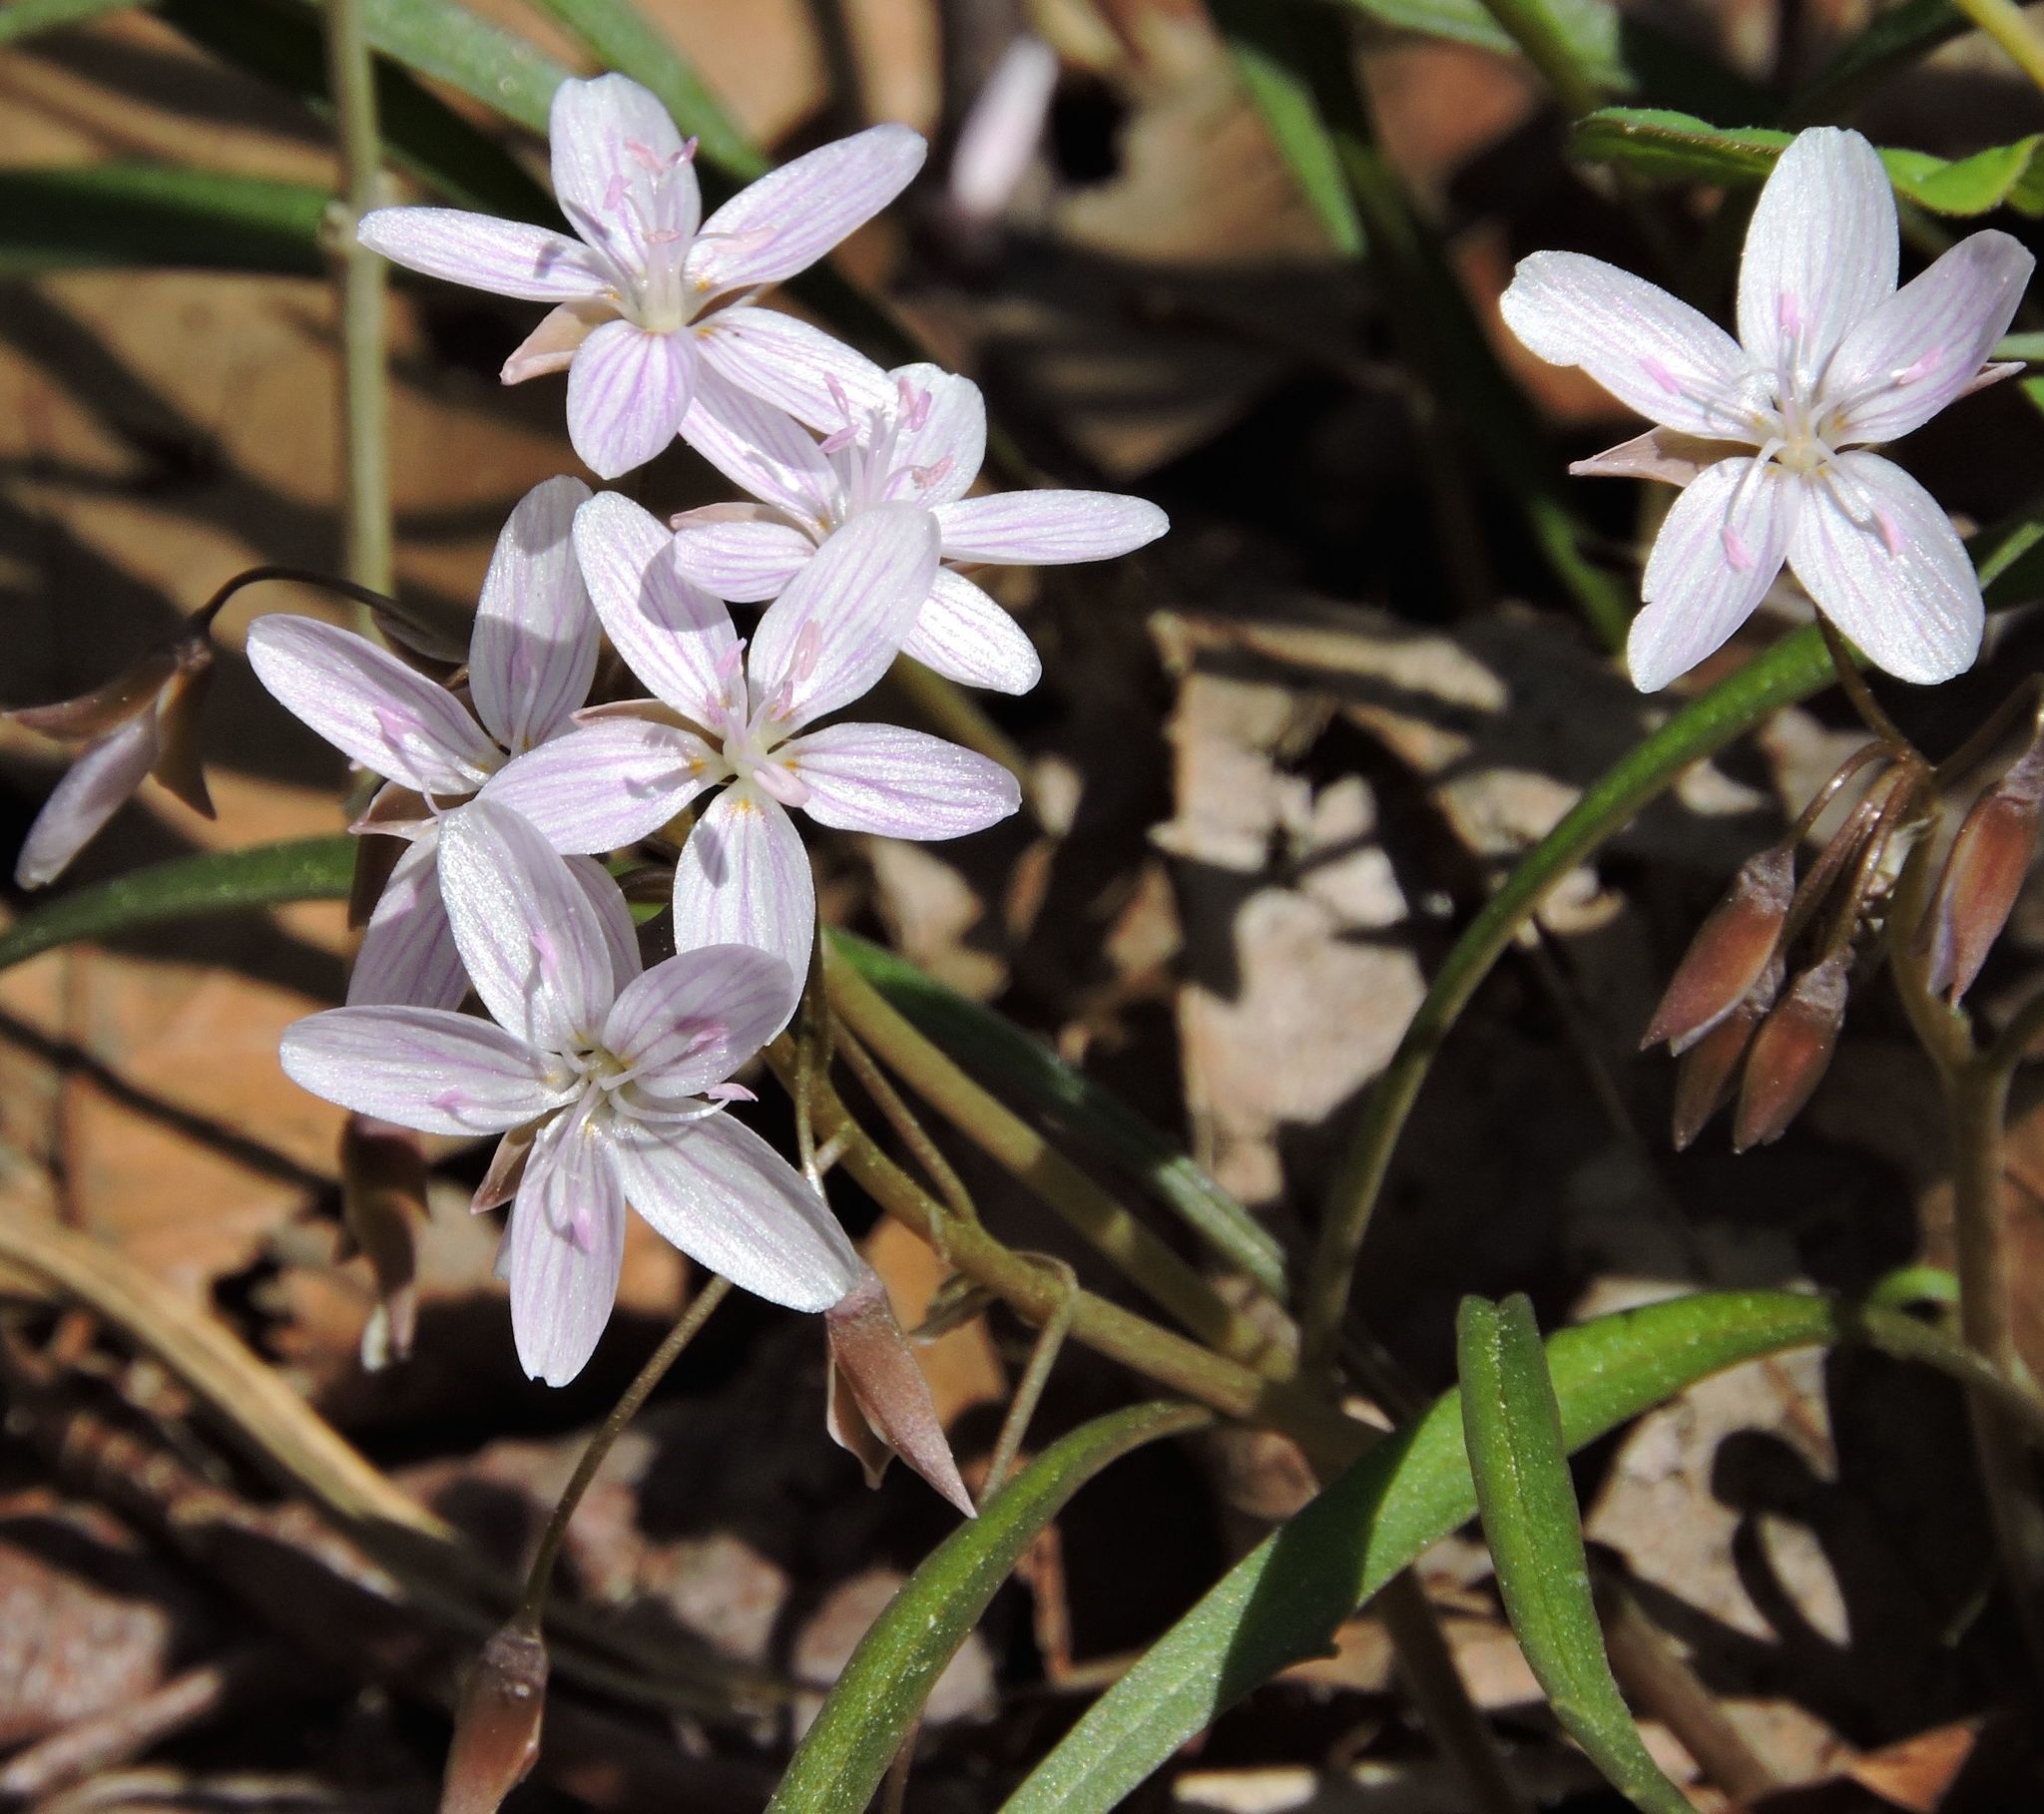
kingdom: Plantae
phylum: Tracheophyta
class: Magnoliopsida
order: Caryophyllales
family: Montiaceae
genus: Claytonia
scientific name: Claytonia virginica
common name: Virginia springbeauty
